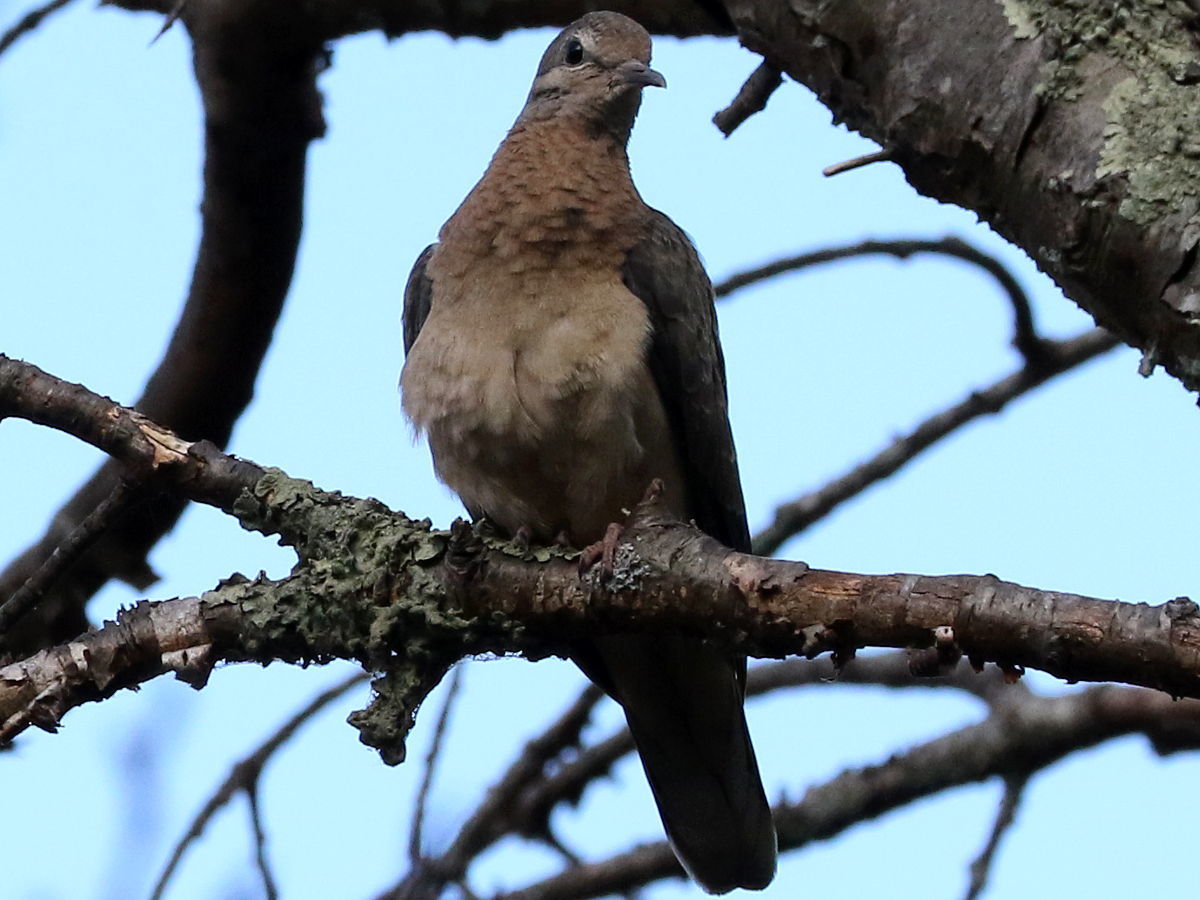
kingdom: Animalia
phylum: Chordata
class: Aves
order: Columbiformes
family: Columbidae
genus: Zenaida
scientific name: Zenaida auriculata
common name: Eared dove
